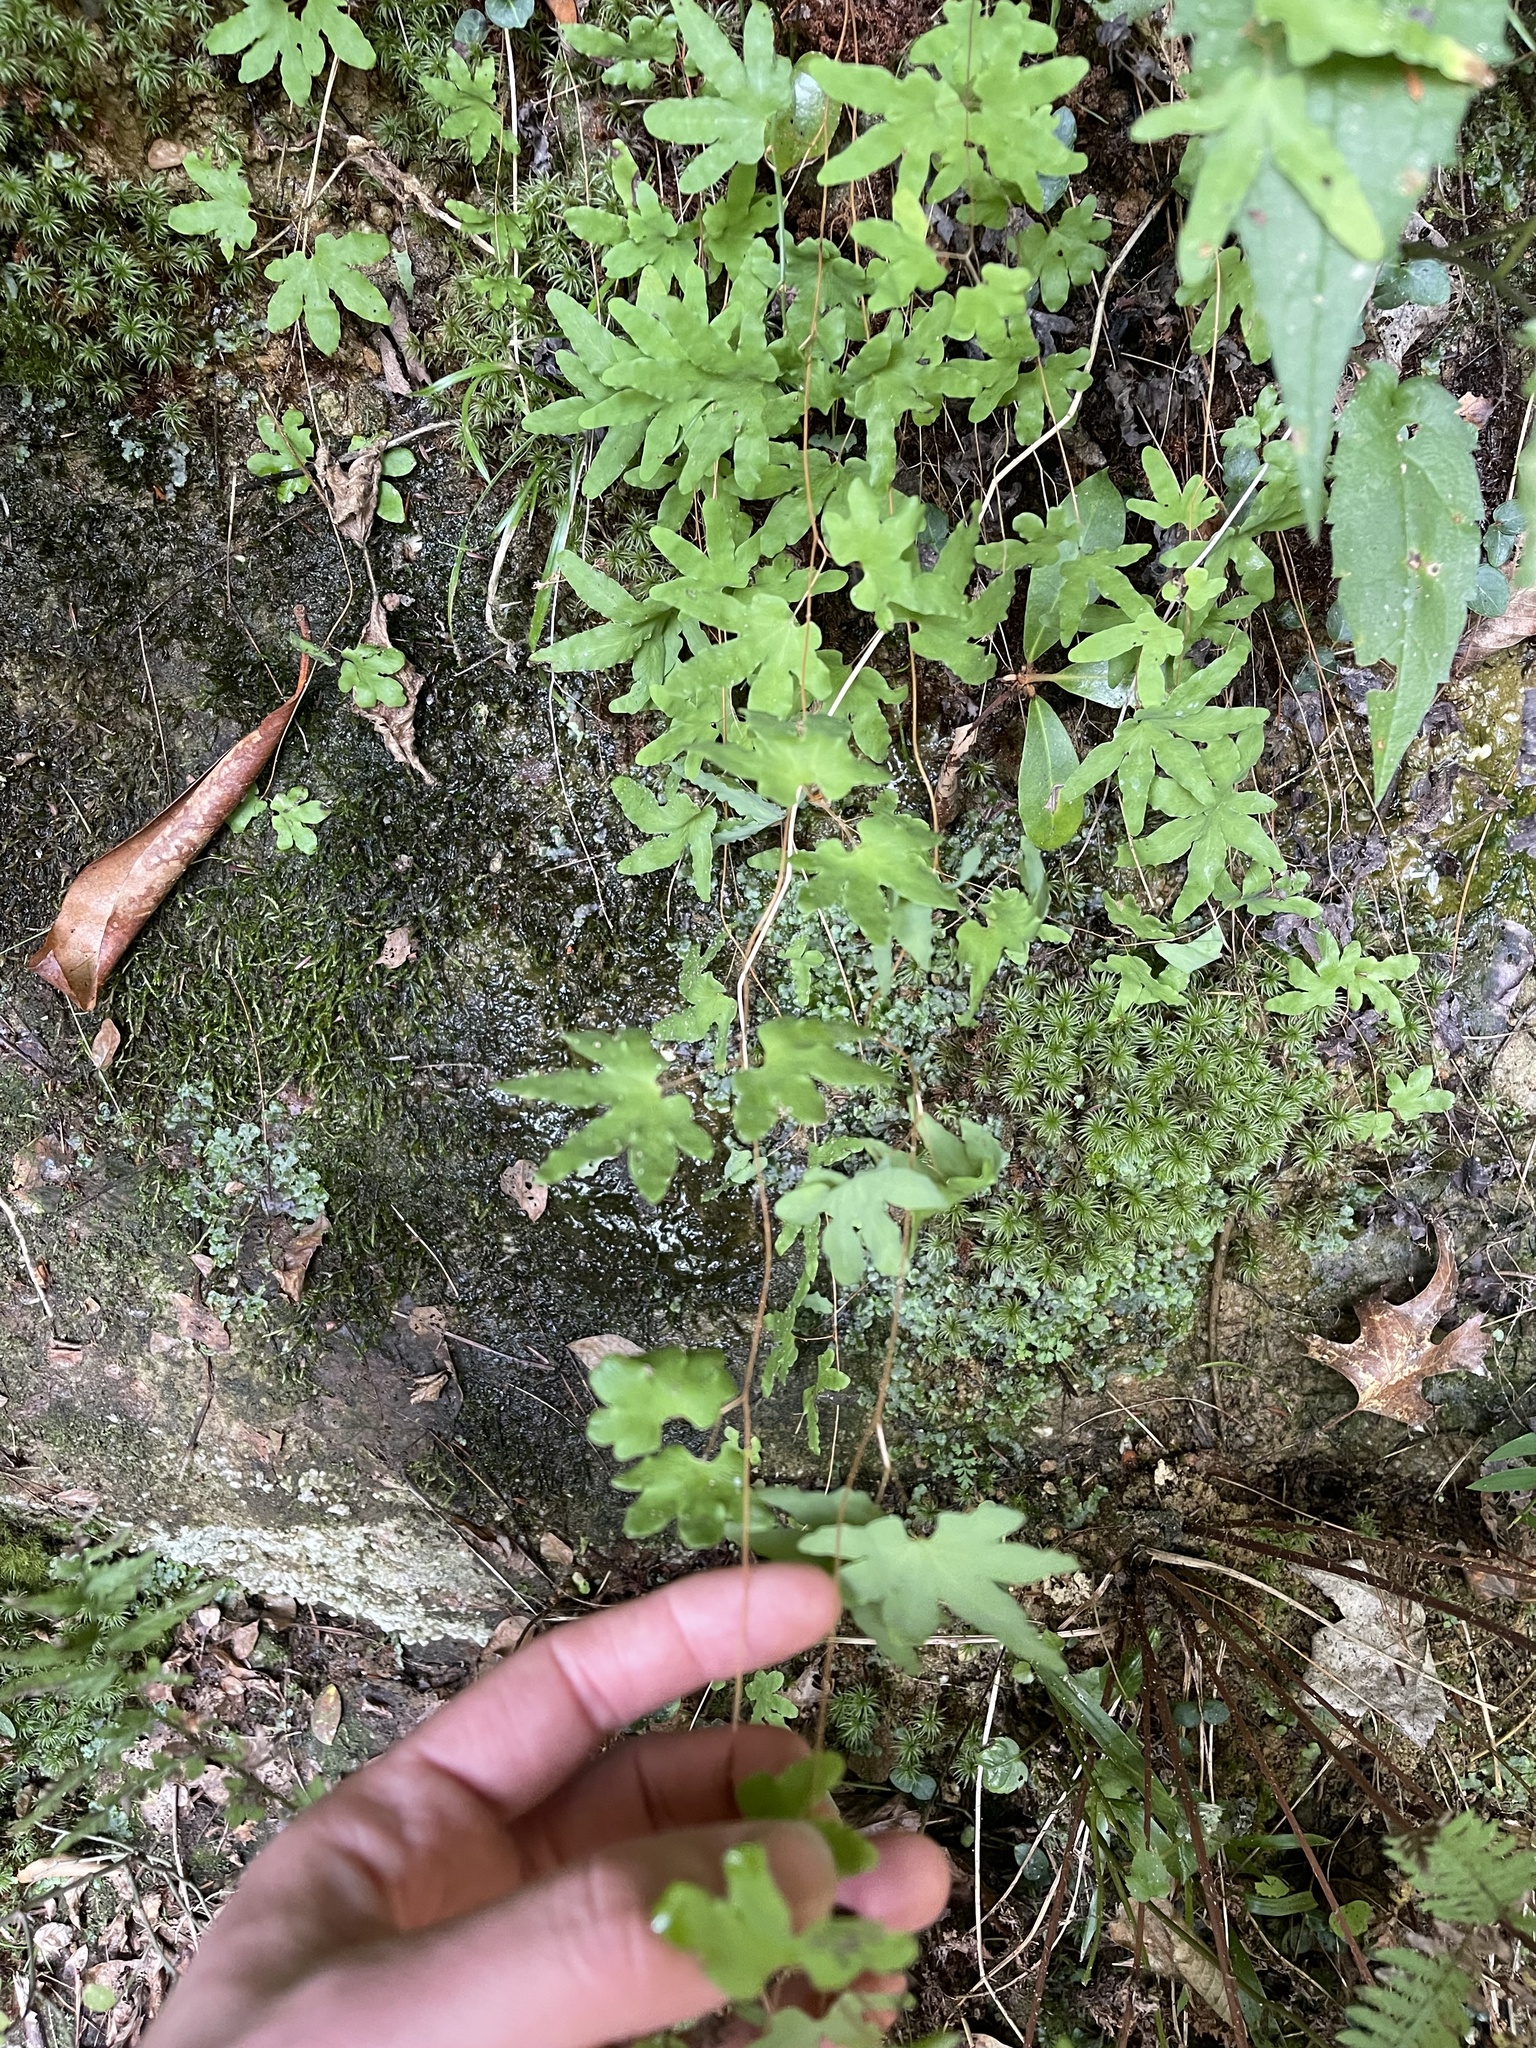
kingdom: Plantae
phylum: Tracheophyta
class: Polypodiopsida
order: Schizaeales
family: Lygodiaceae
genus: Lygodium
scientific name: Lygodium palmatum
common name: American climbing fern
